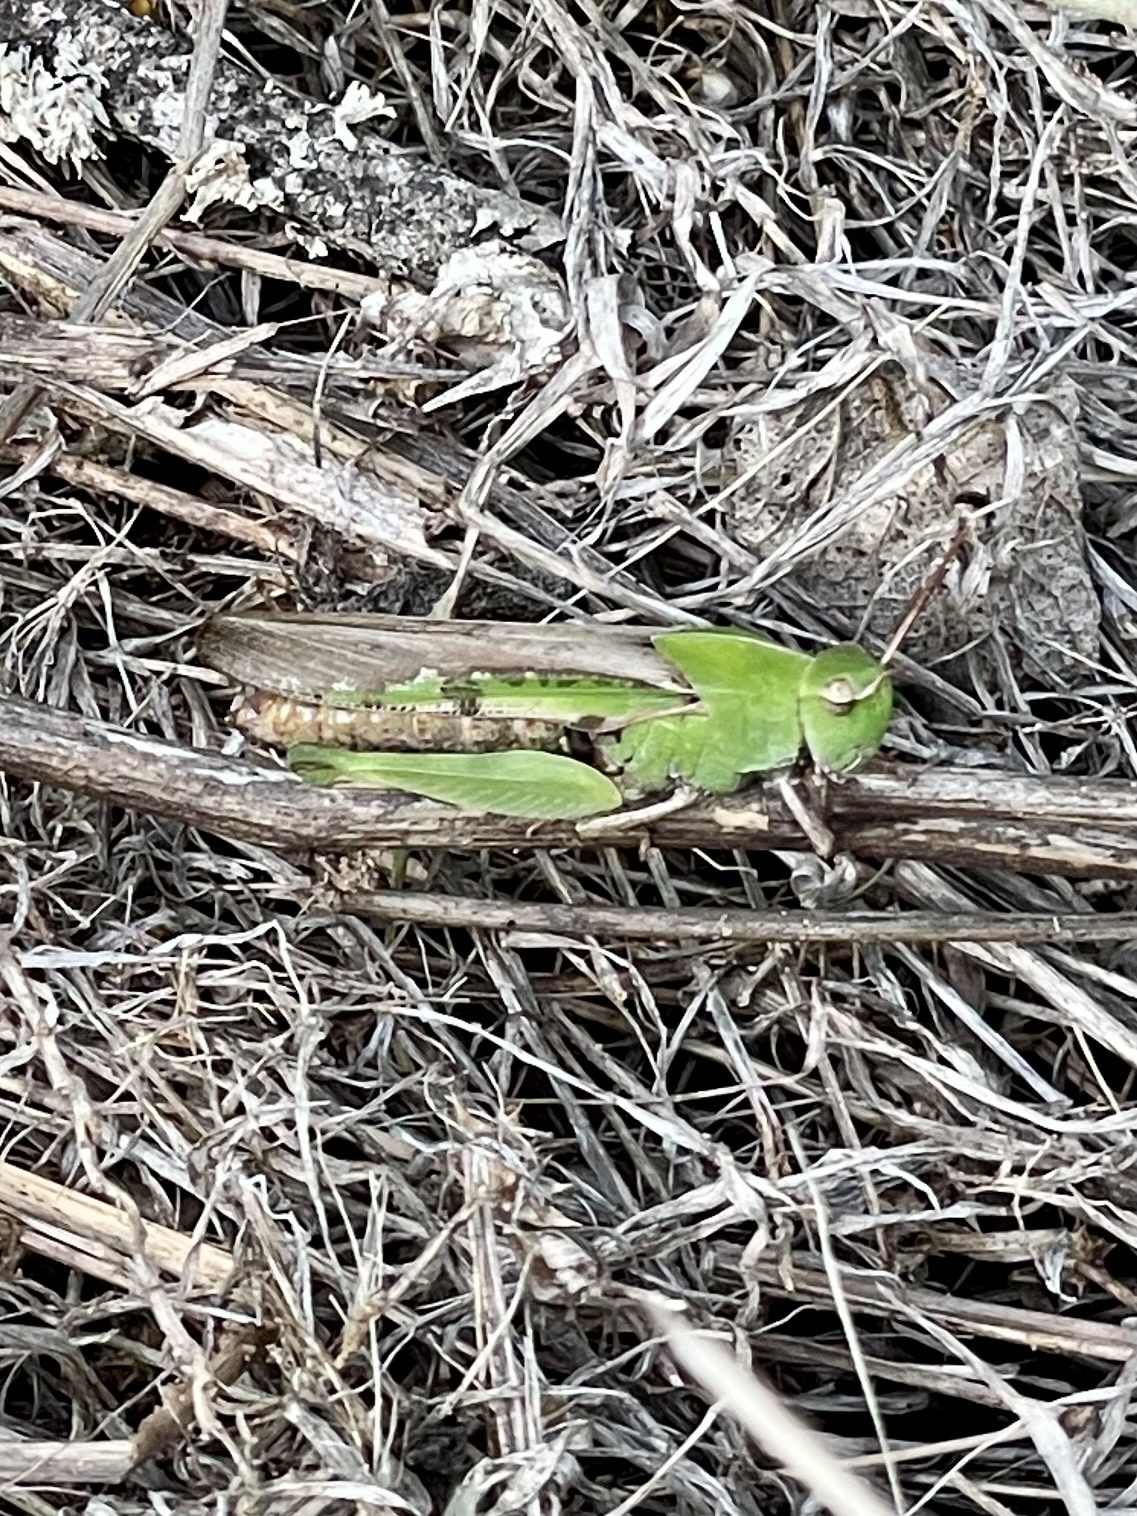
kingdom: Animalia
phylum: Arthropoda
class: Insecta
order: Orthoptera
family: Acrididae
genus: Chortophaga
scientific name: Chortophaga viridifasciata
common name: Green-striped grasshopper
